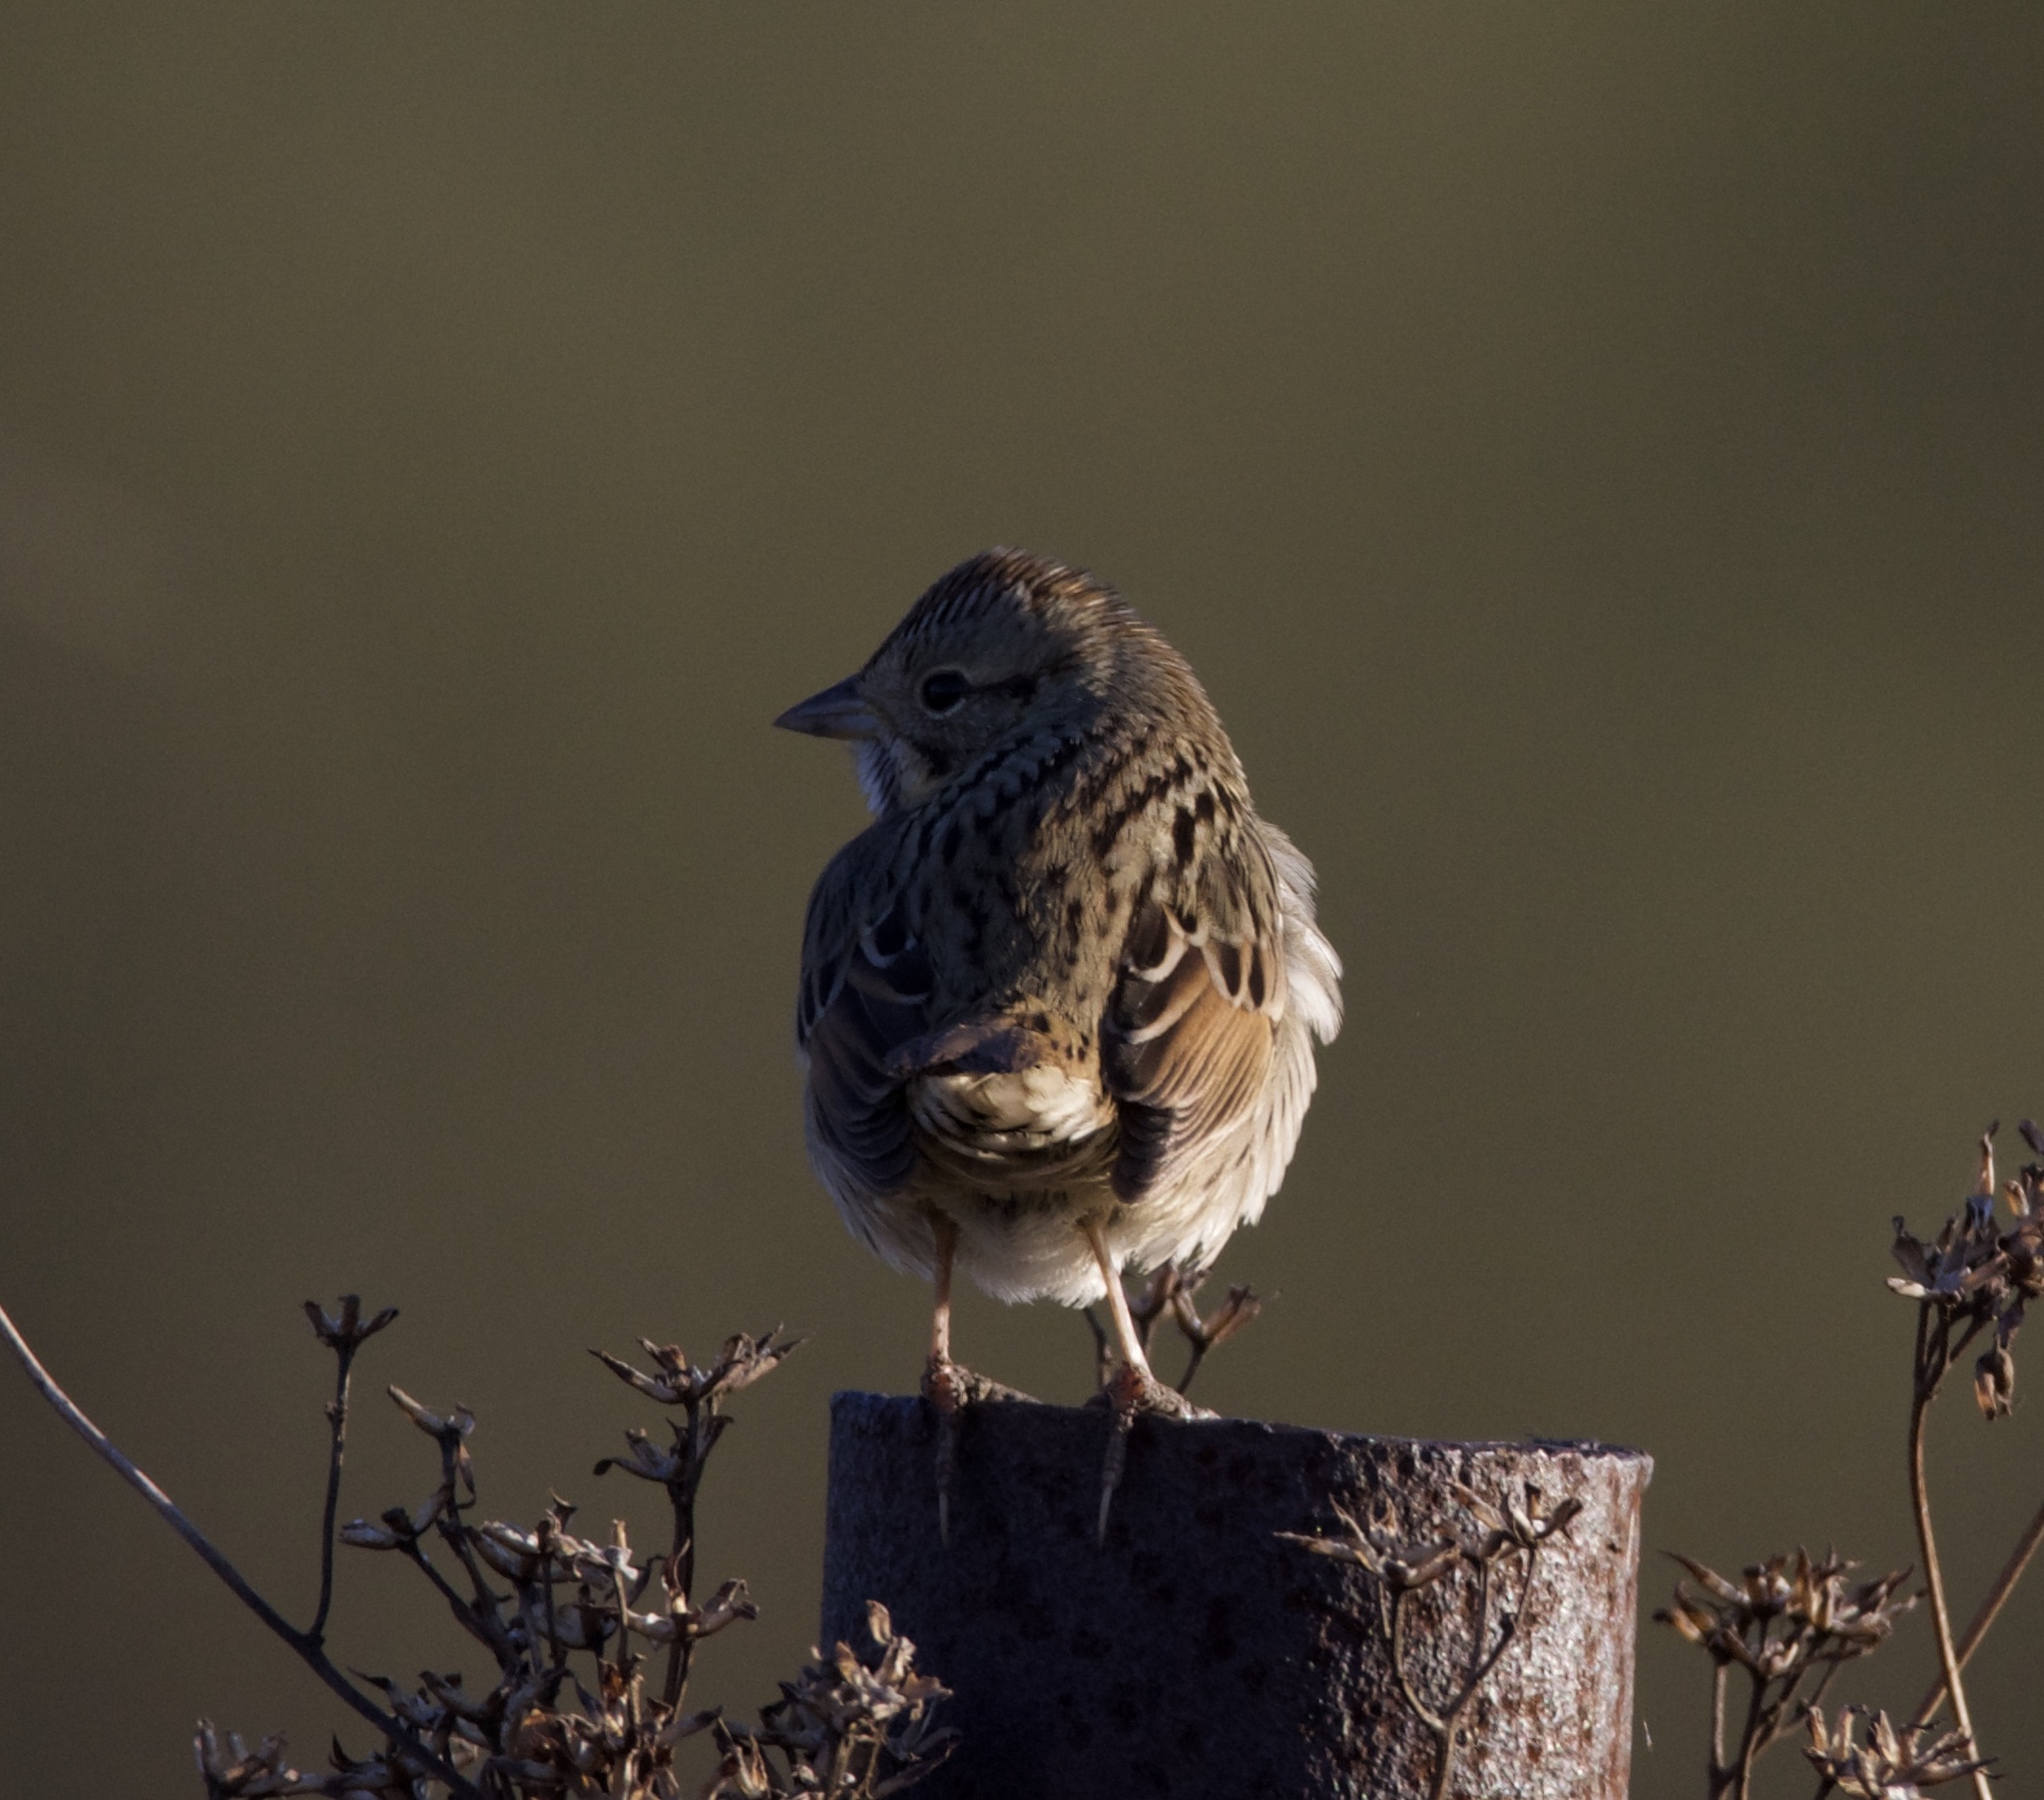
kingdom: Animalia
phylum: Chordata
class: Aves
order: Passeriformes
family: Passerellidae
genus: Melospiza
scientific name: Melospiza lincolnii
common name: Lincoln's sparrow
